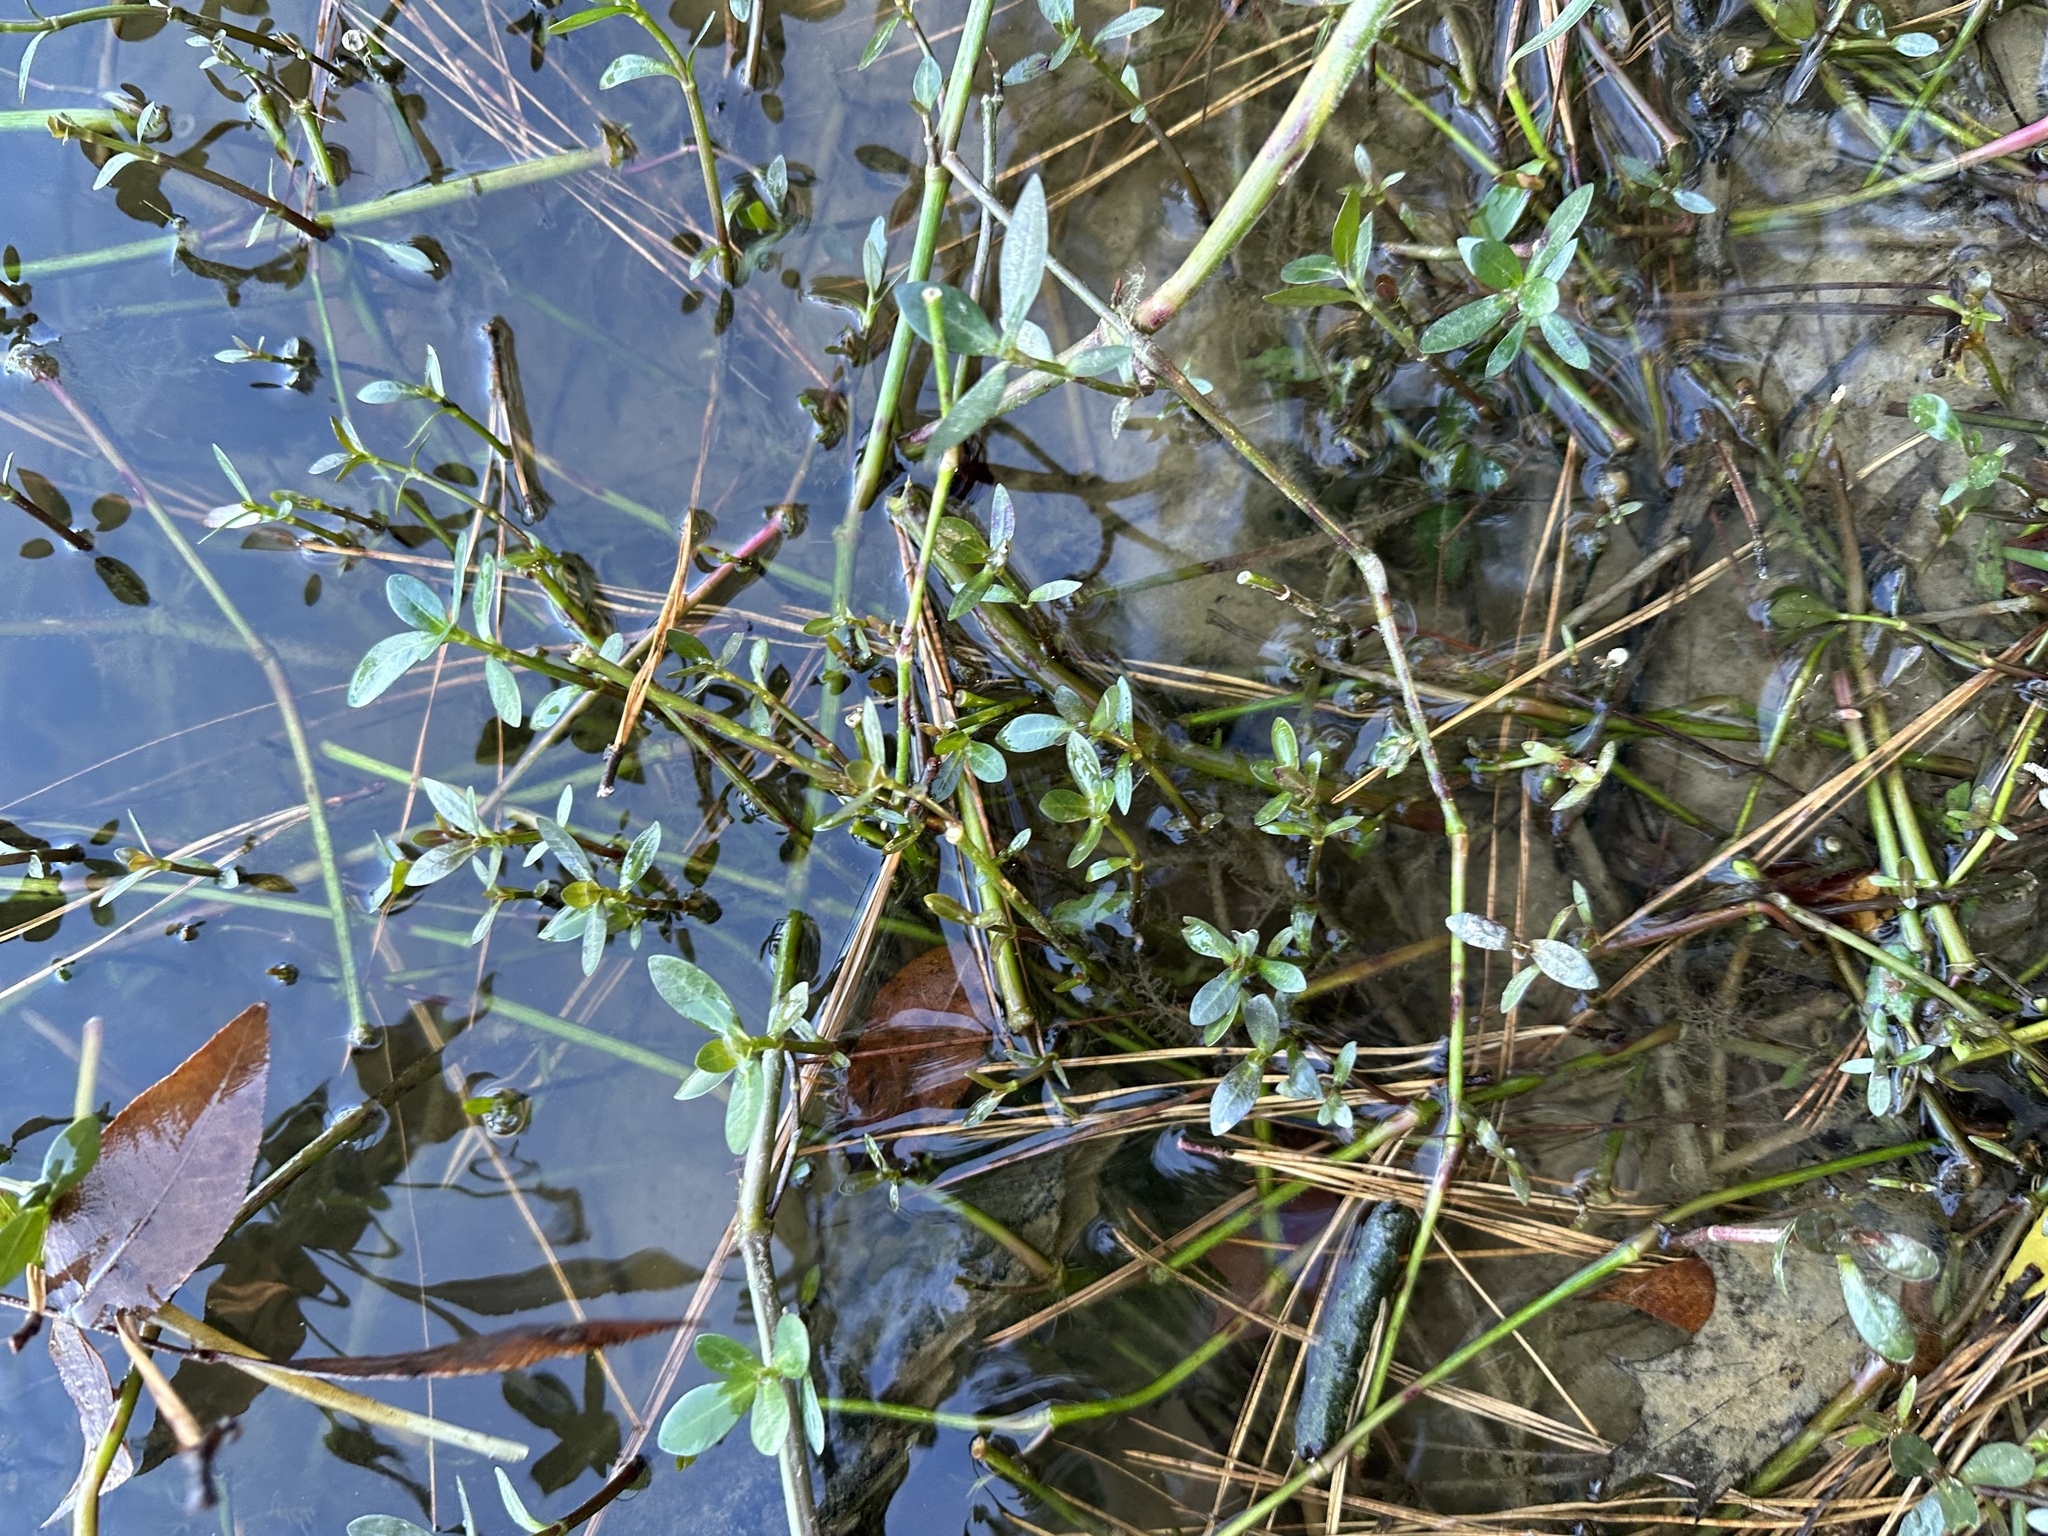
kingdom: Plantae
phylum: Tracheophyta
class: Magnoliopsida
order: Caryophyllales
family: Amaranthaceae
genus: Alternanthera
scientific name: Alternanthera philoxeroides
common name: Alligatorweed
